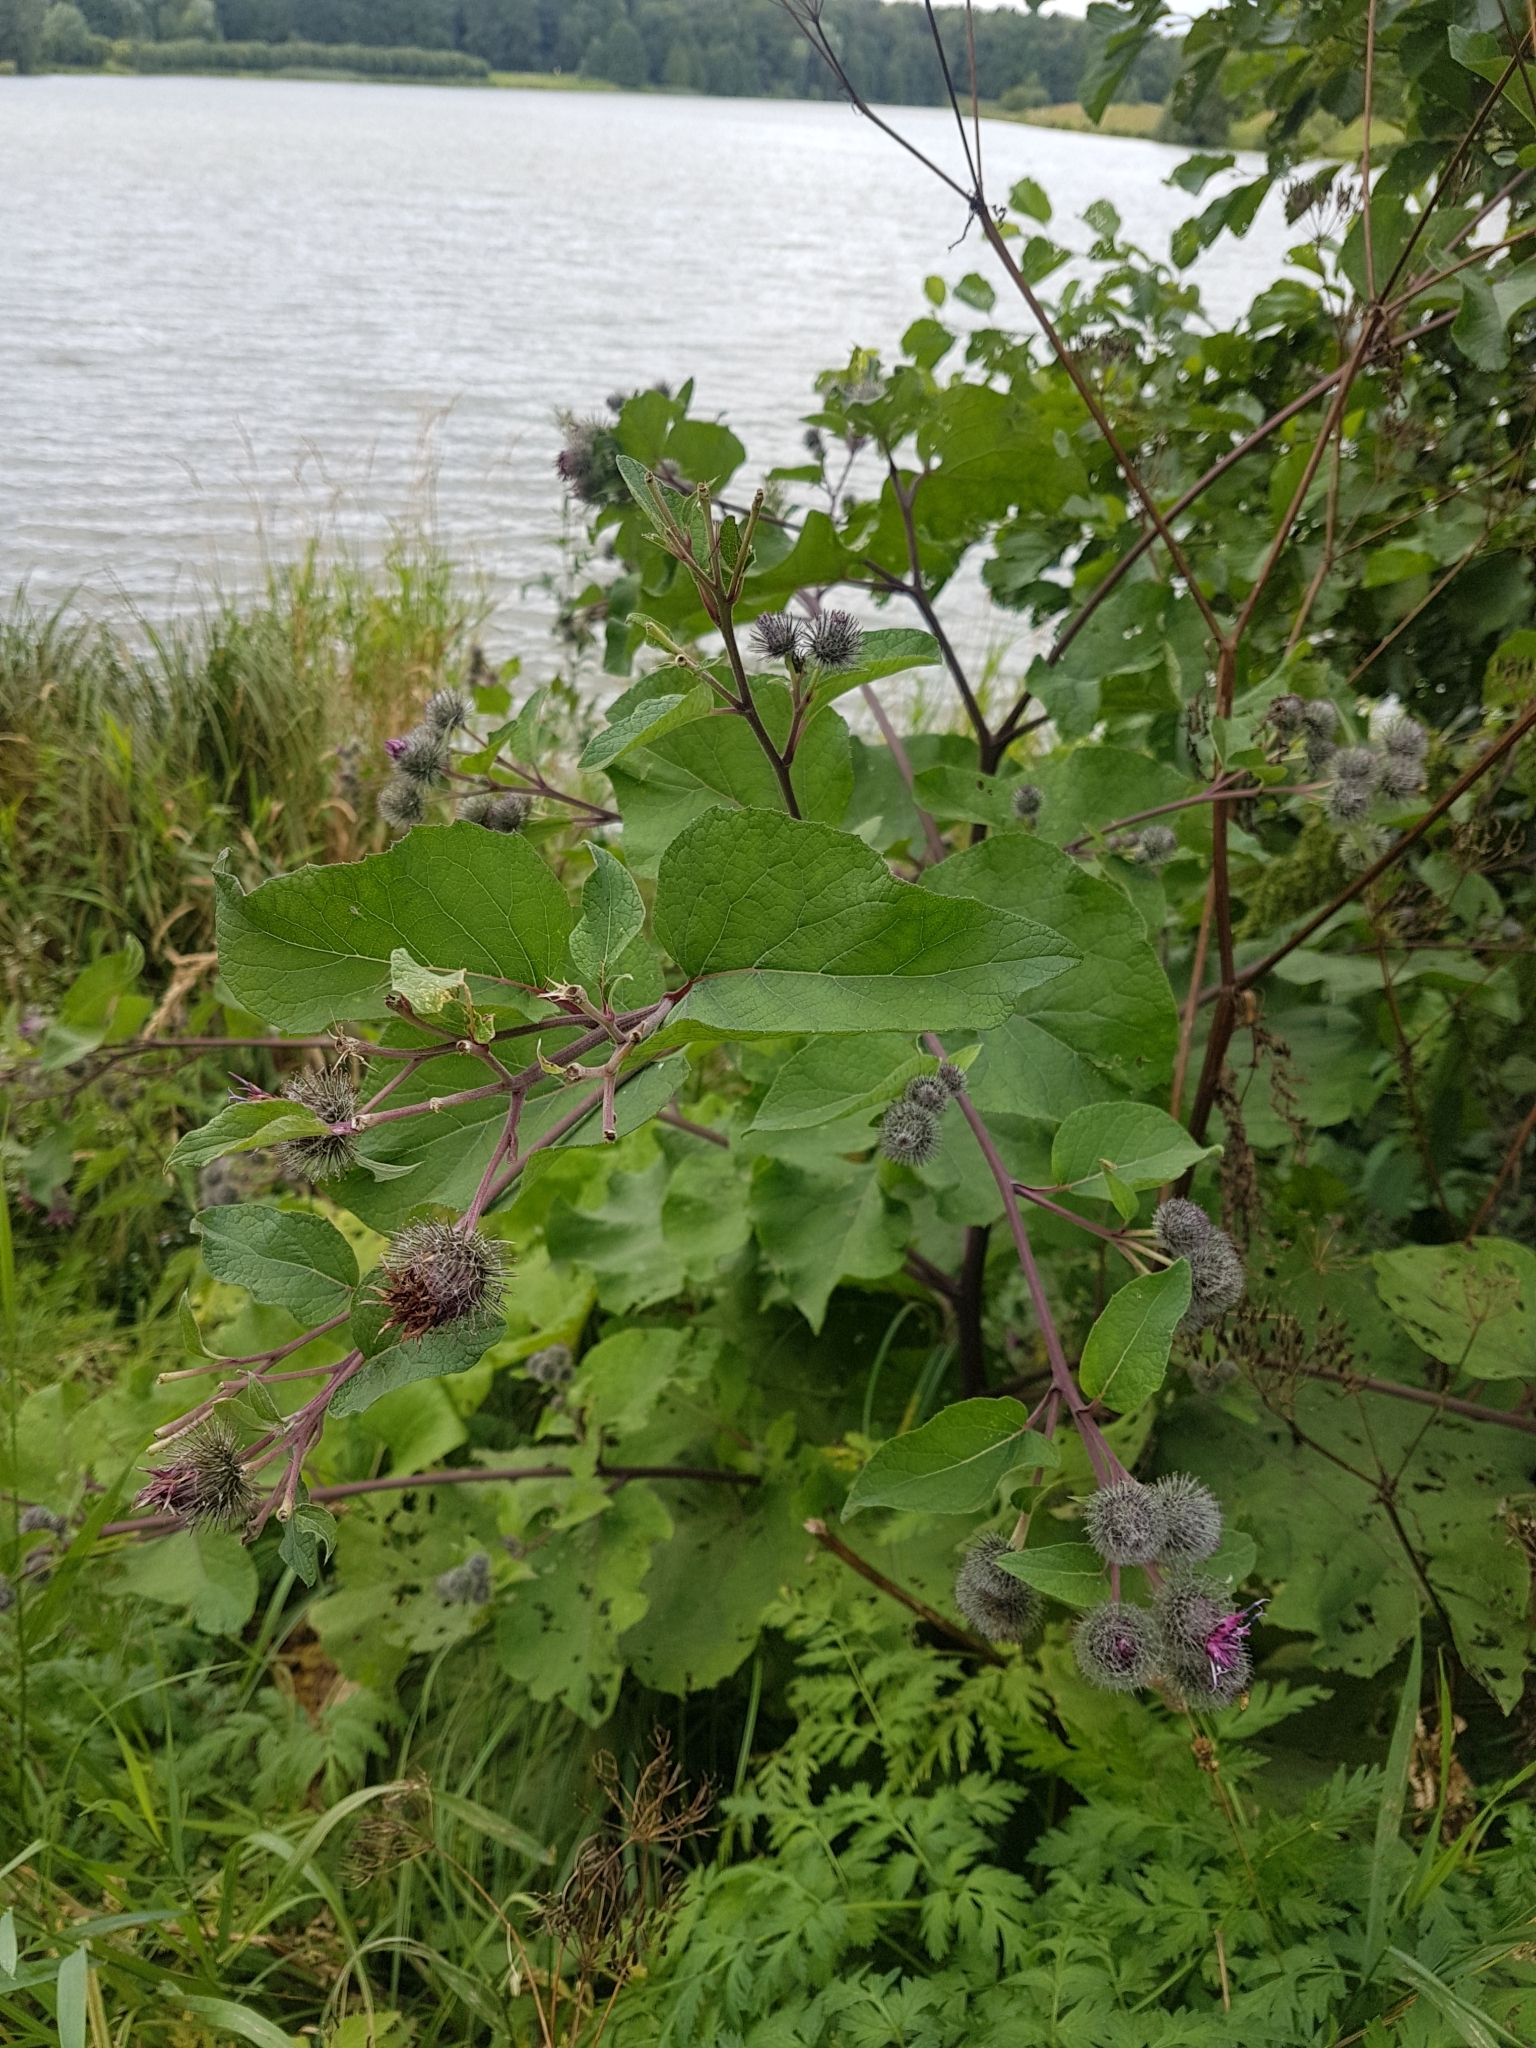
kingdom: Plantae
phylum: Tracheophyta
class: Magnoliopsida
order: Asterales
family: Asteraceae
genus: Arctium
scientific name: Arctium tomentosum
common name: Woolly burdock
